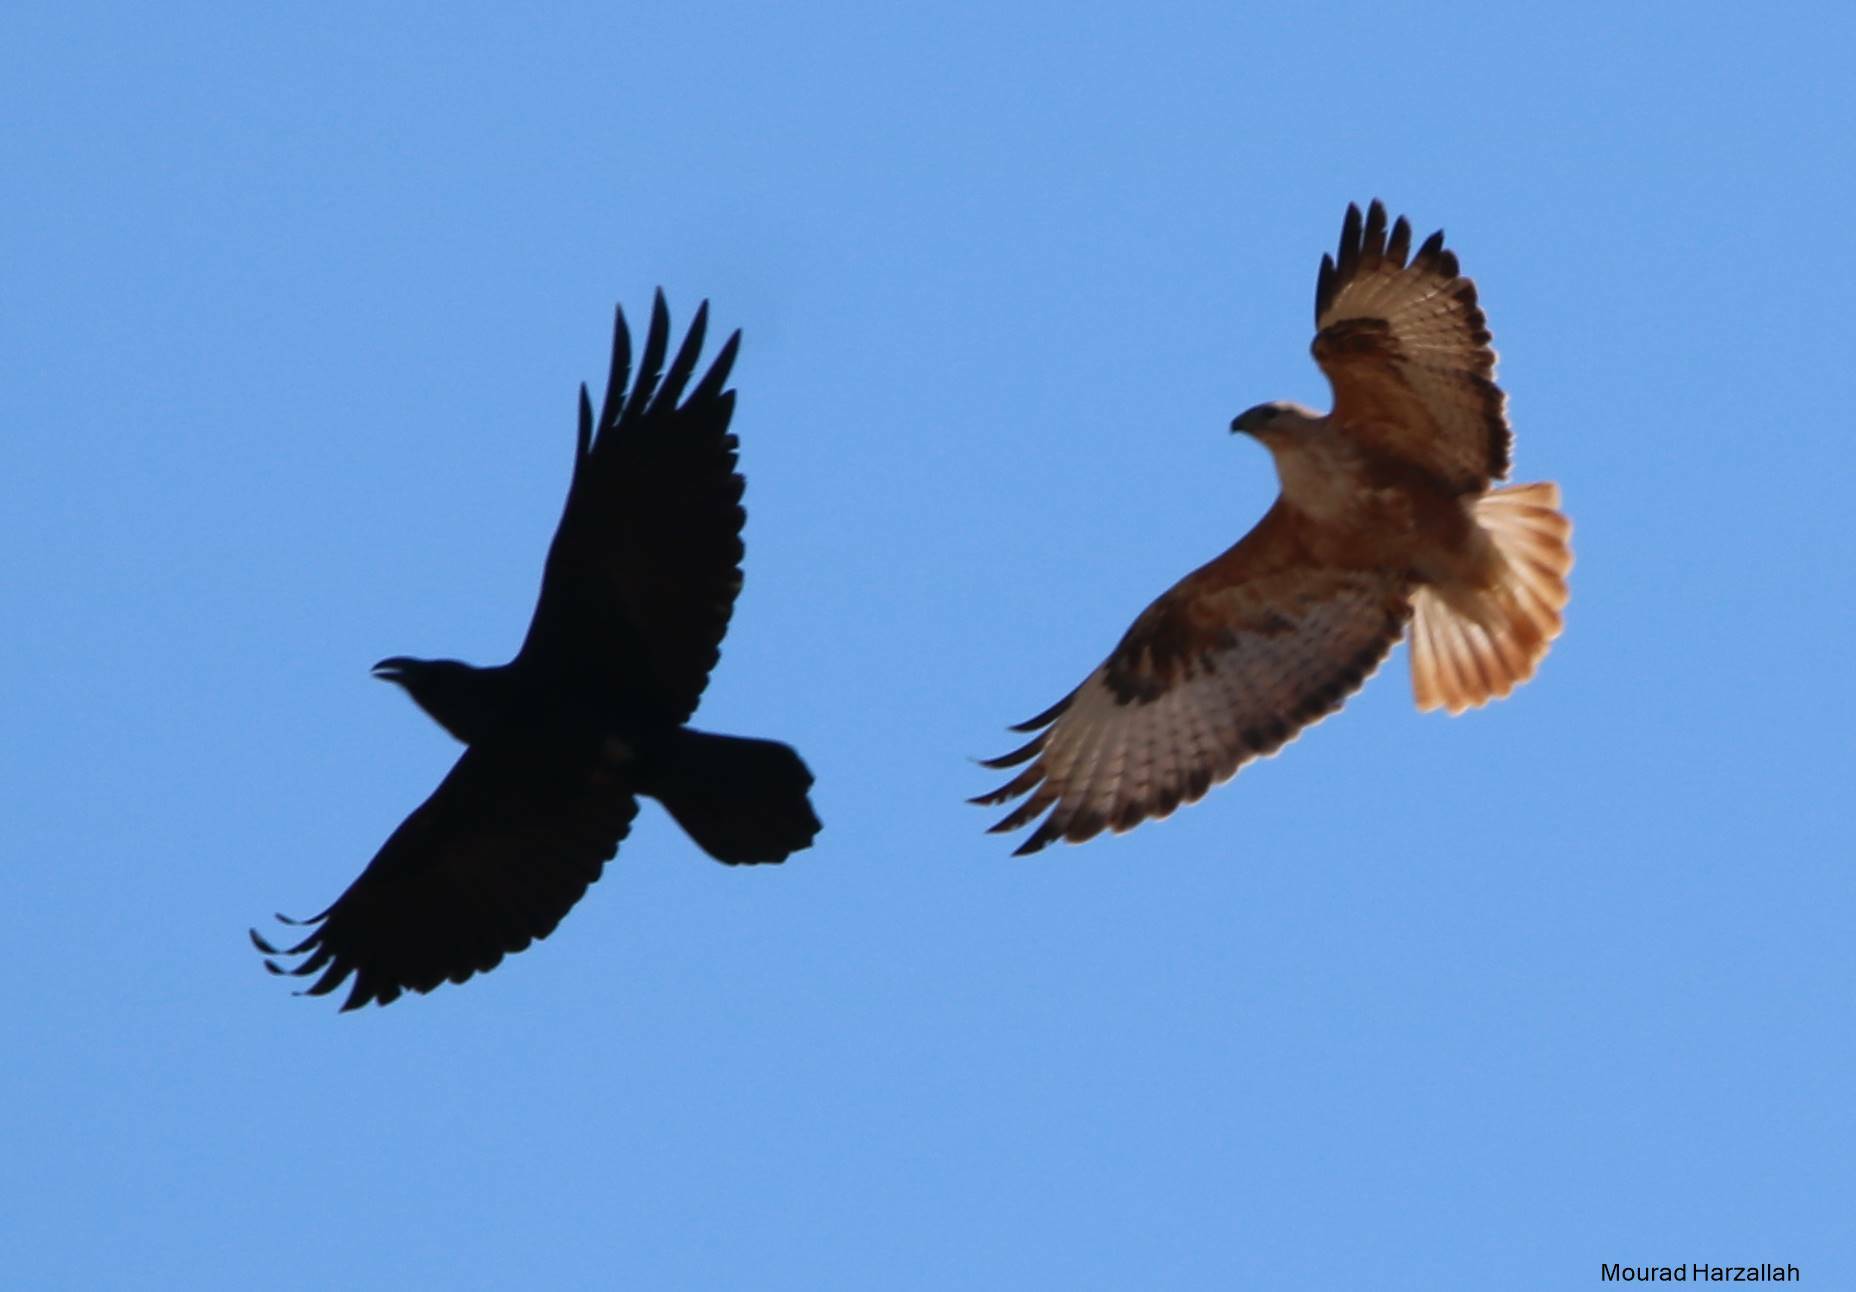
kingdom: Animalia
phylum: Chordata
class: Aves
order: Accipitriformes
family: Accipitridae
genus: Buteo
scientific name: Buteo rufinus
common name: Long-legged buzzard
